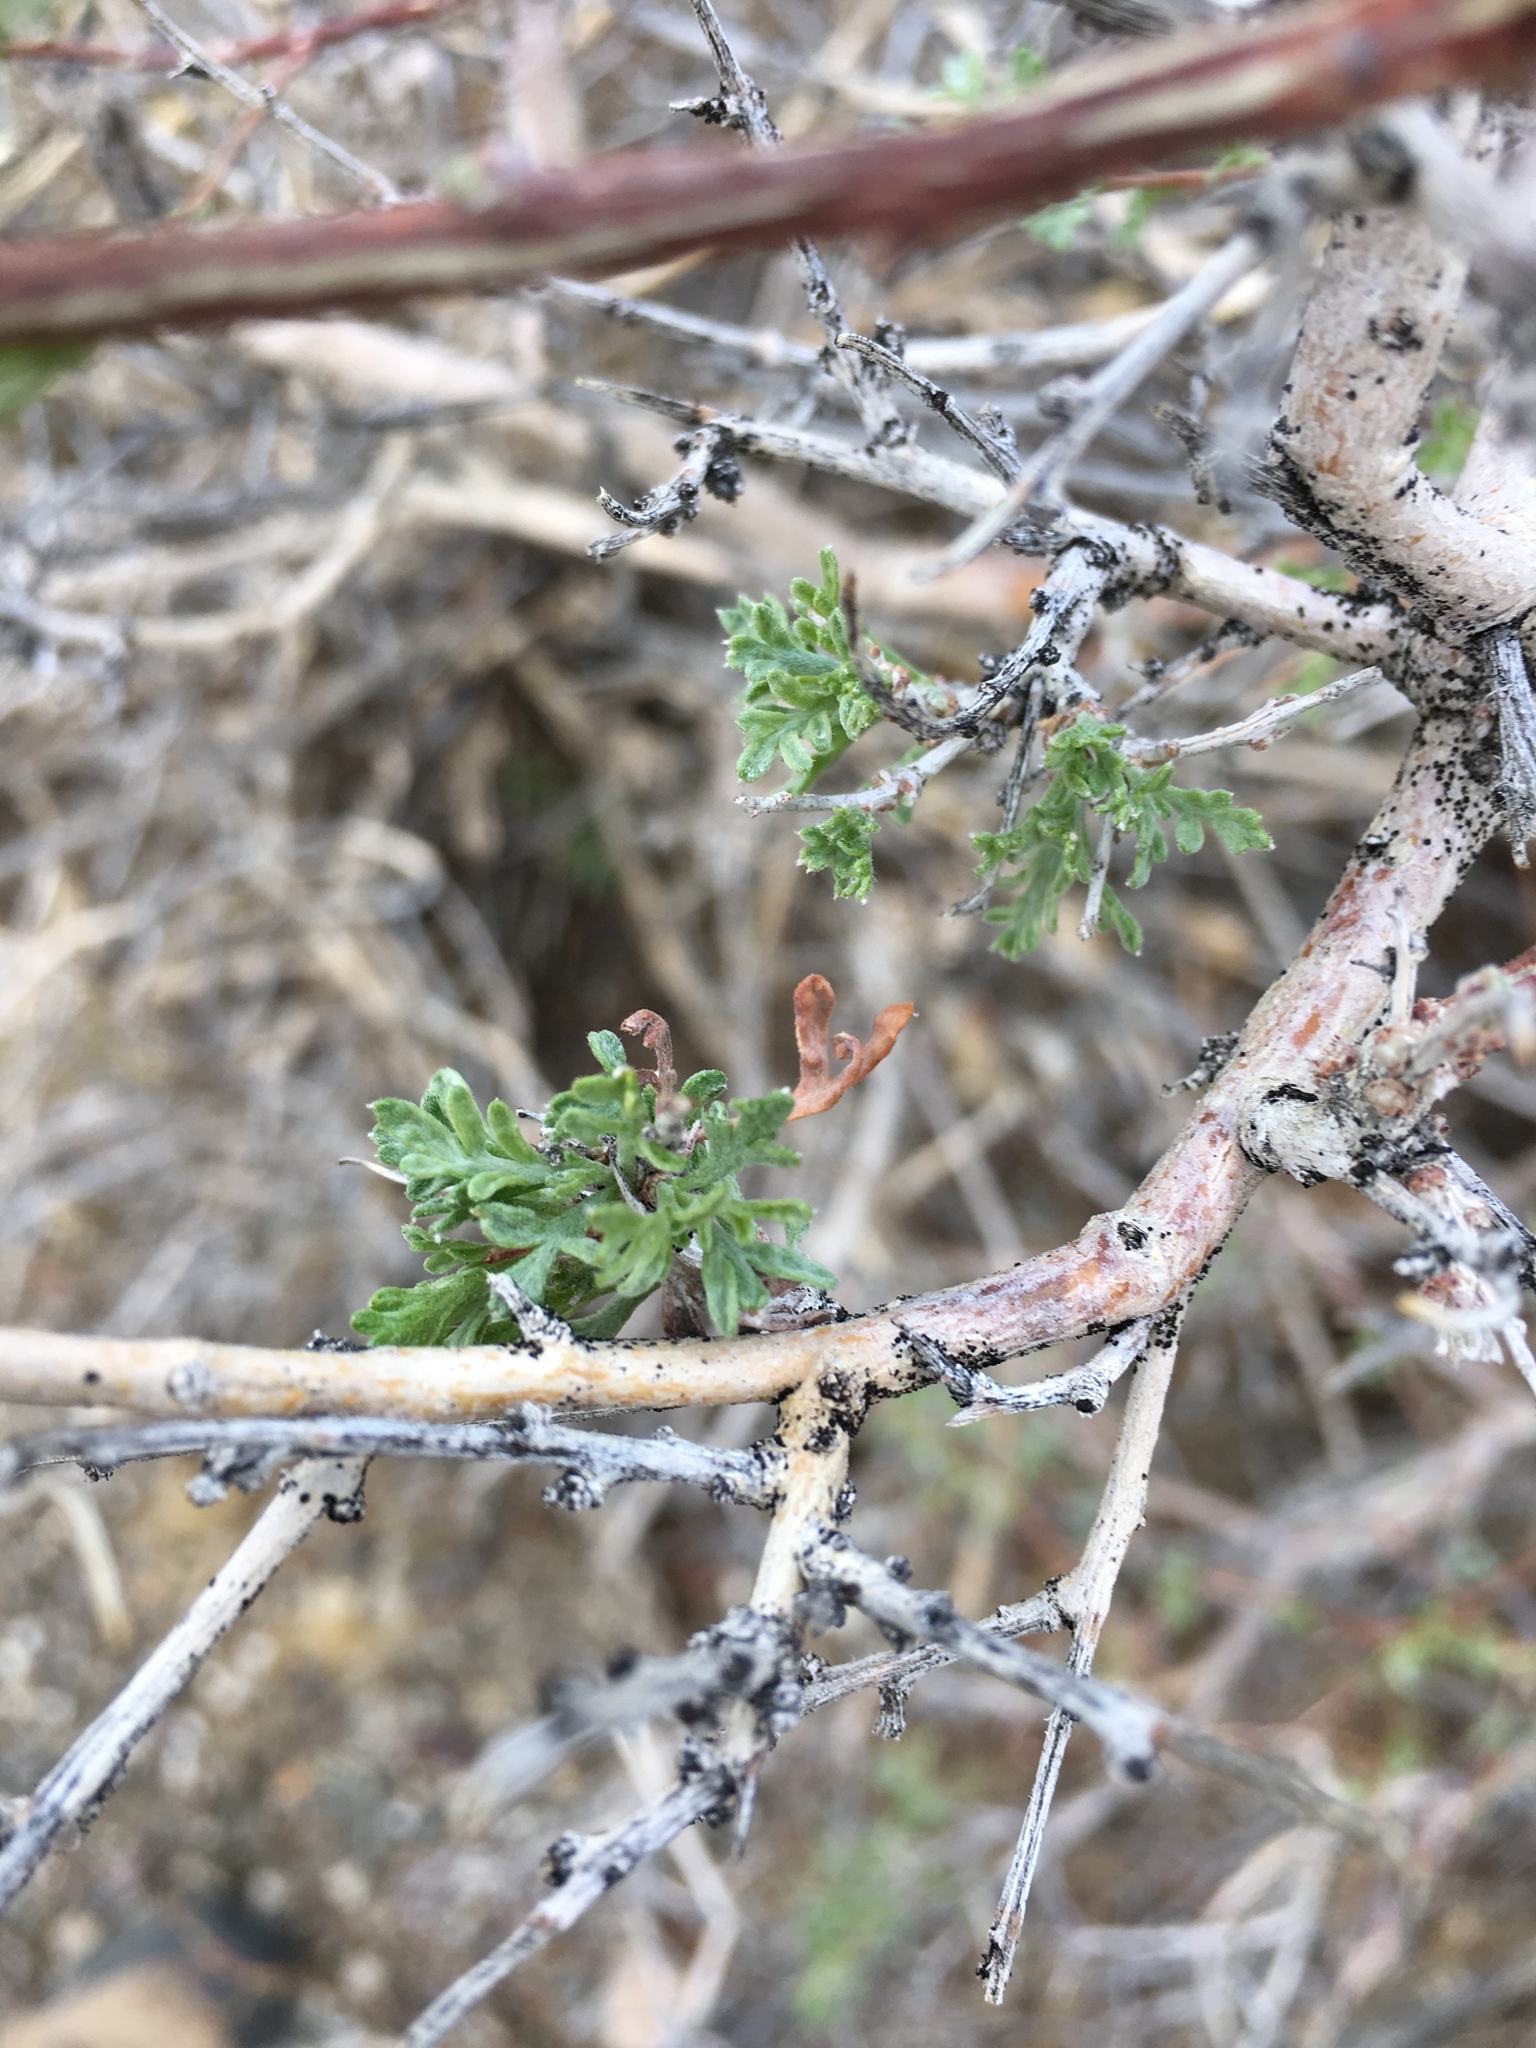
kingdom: Plantae
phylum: Tracheophyta
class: Magnoliopsida
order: Fabales
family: Fabaceae
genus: Psorothamnus
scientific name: Psorothamnus arborescens
